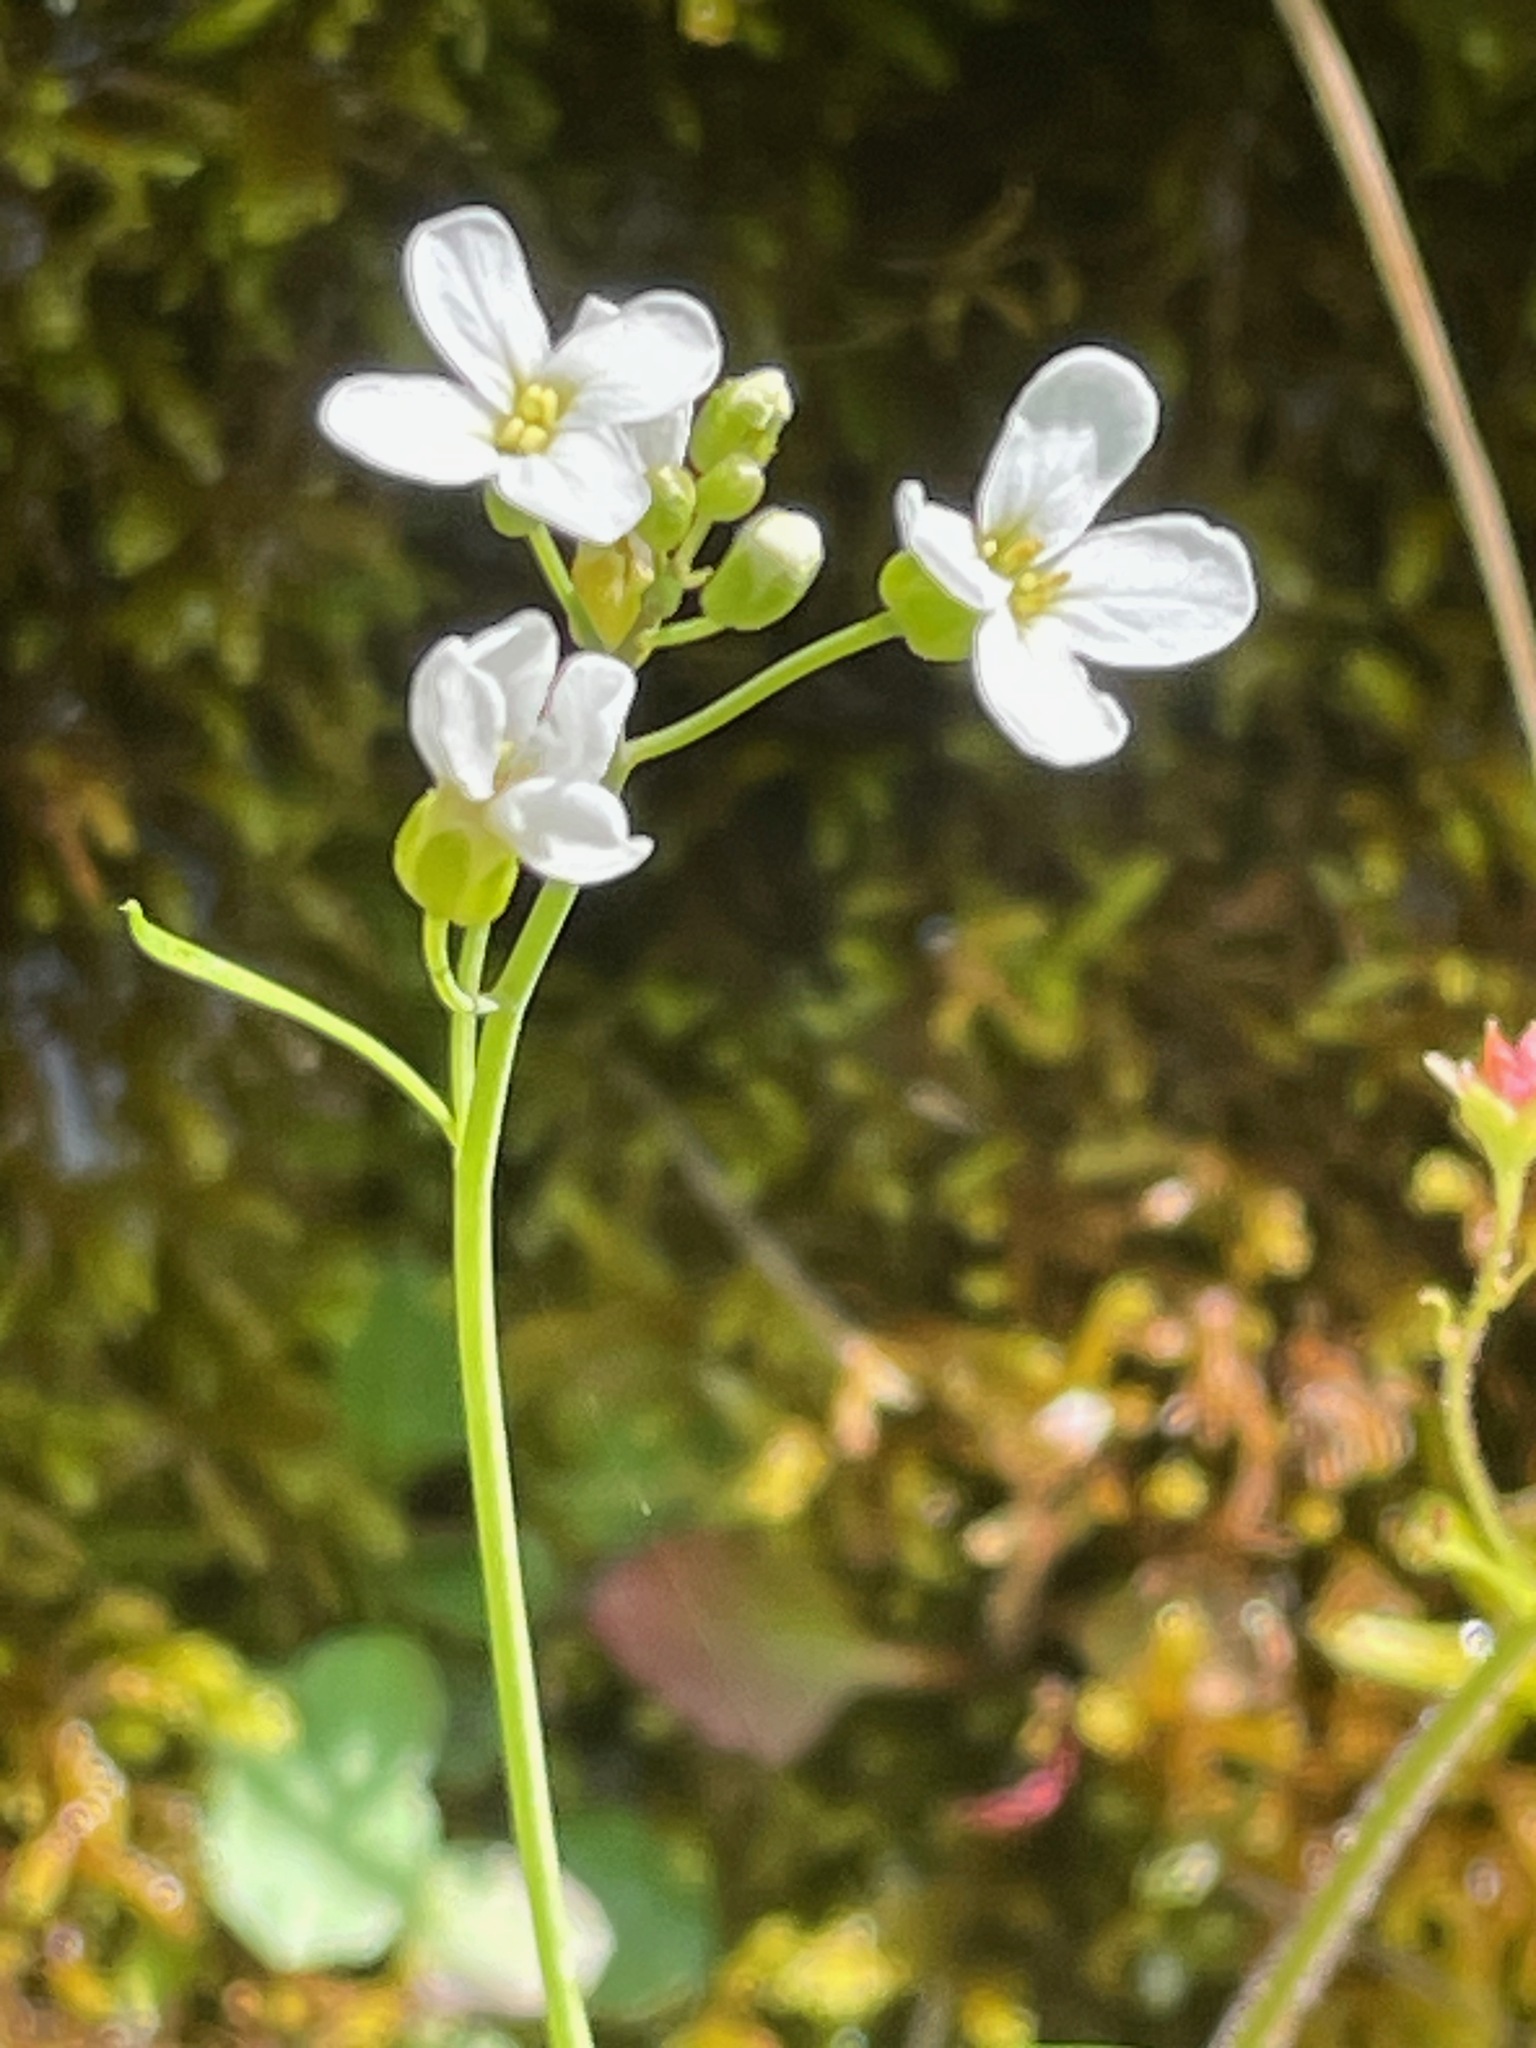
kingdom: Plantae
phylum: Tracheophyta
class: Magnoliopsida
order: Brassicales
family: Brassicaceae
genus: Arabidopsis
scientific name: Arabidopsis thaliana
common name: Thale cress
